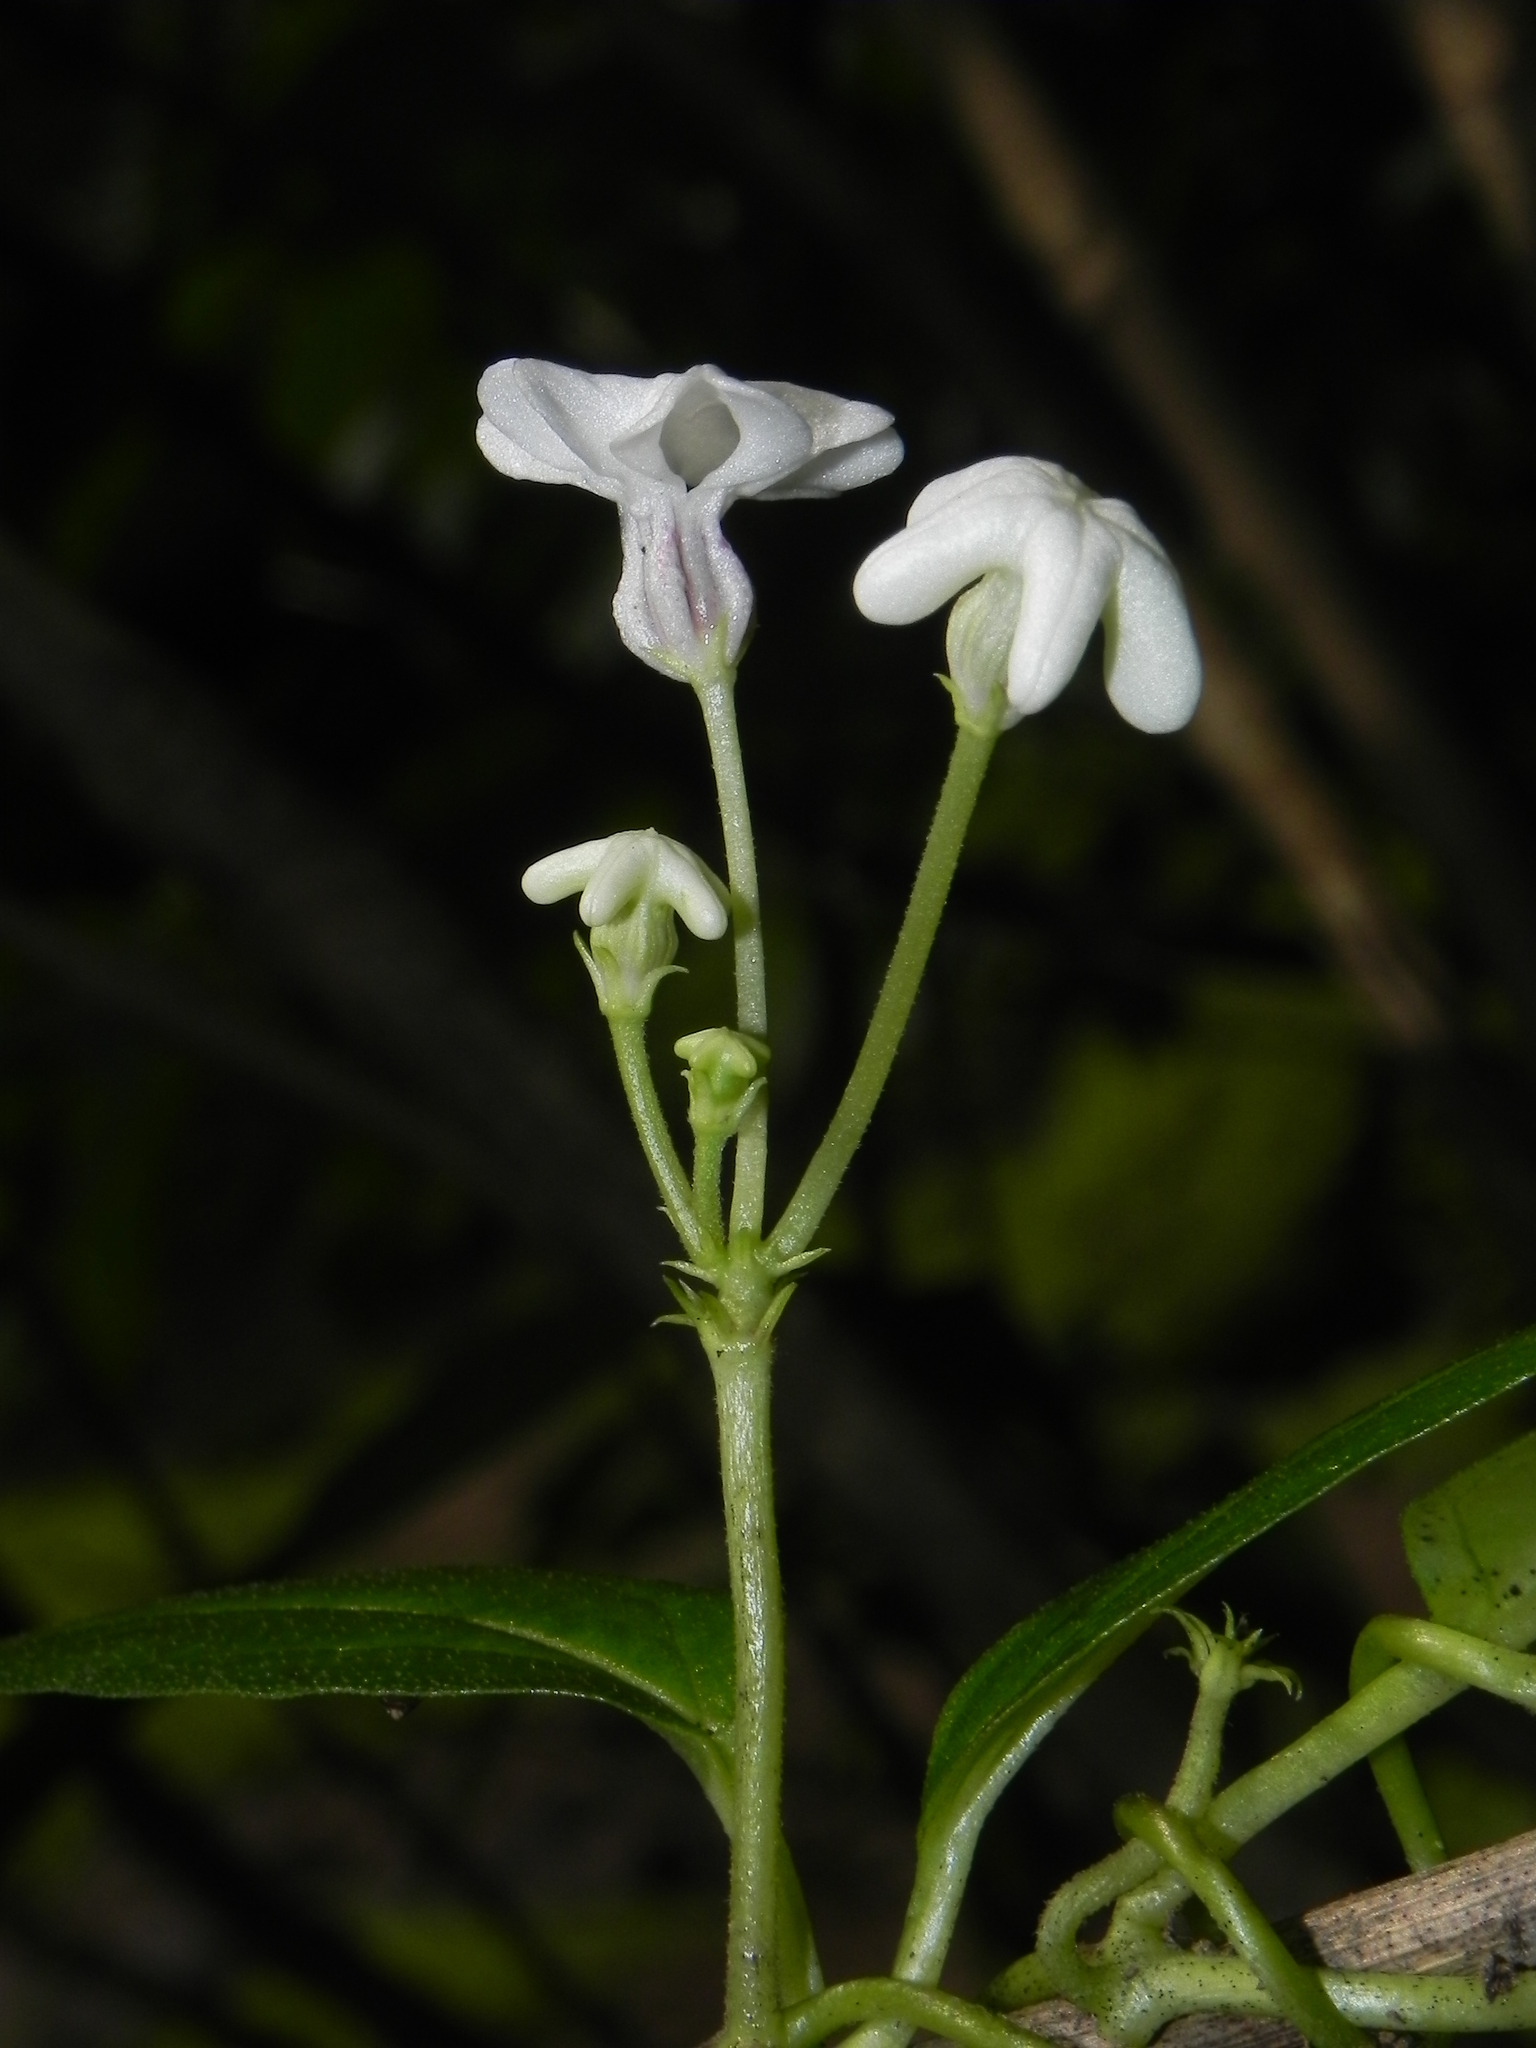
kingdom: Plantae
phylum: Tracheophyta
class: Magnoliopsida
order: Gentianales
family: Apocynaceae
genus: Ceropegia
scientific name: Ceropegia santapaui
